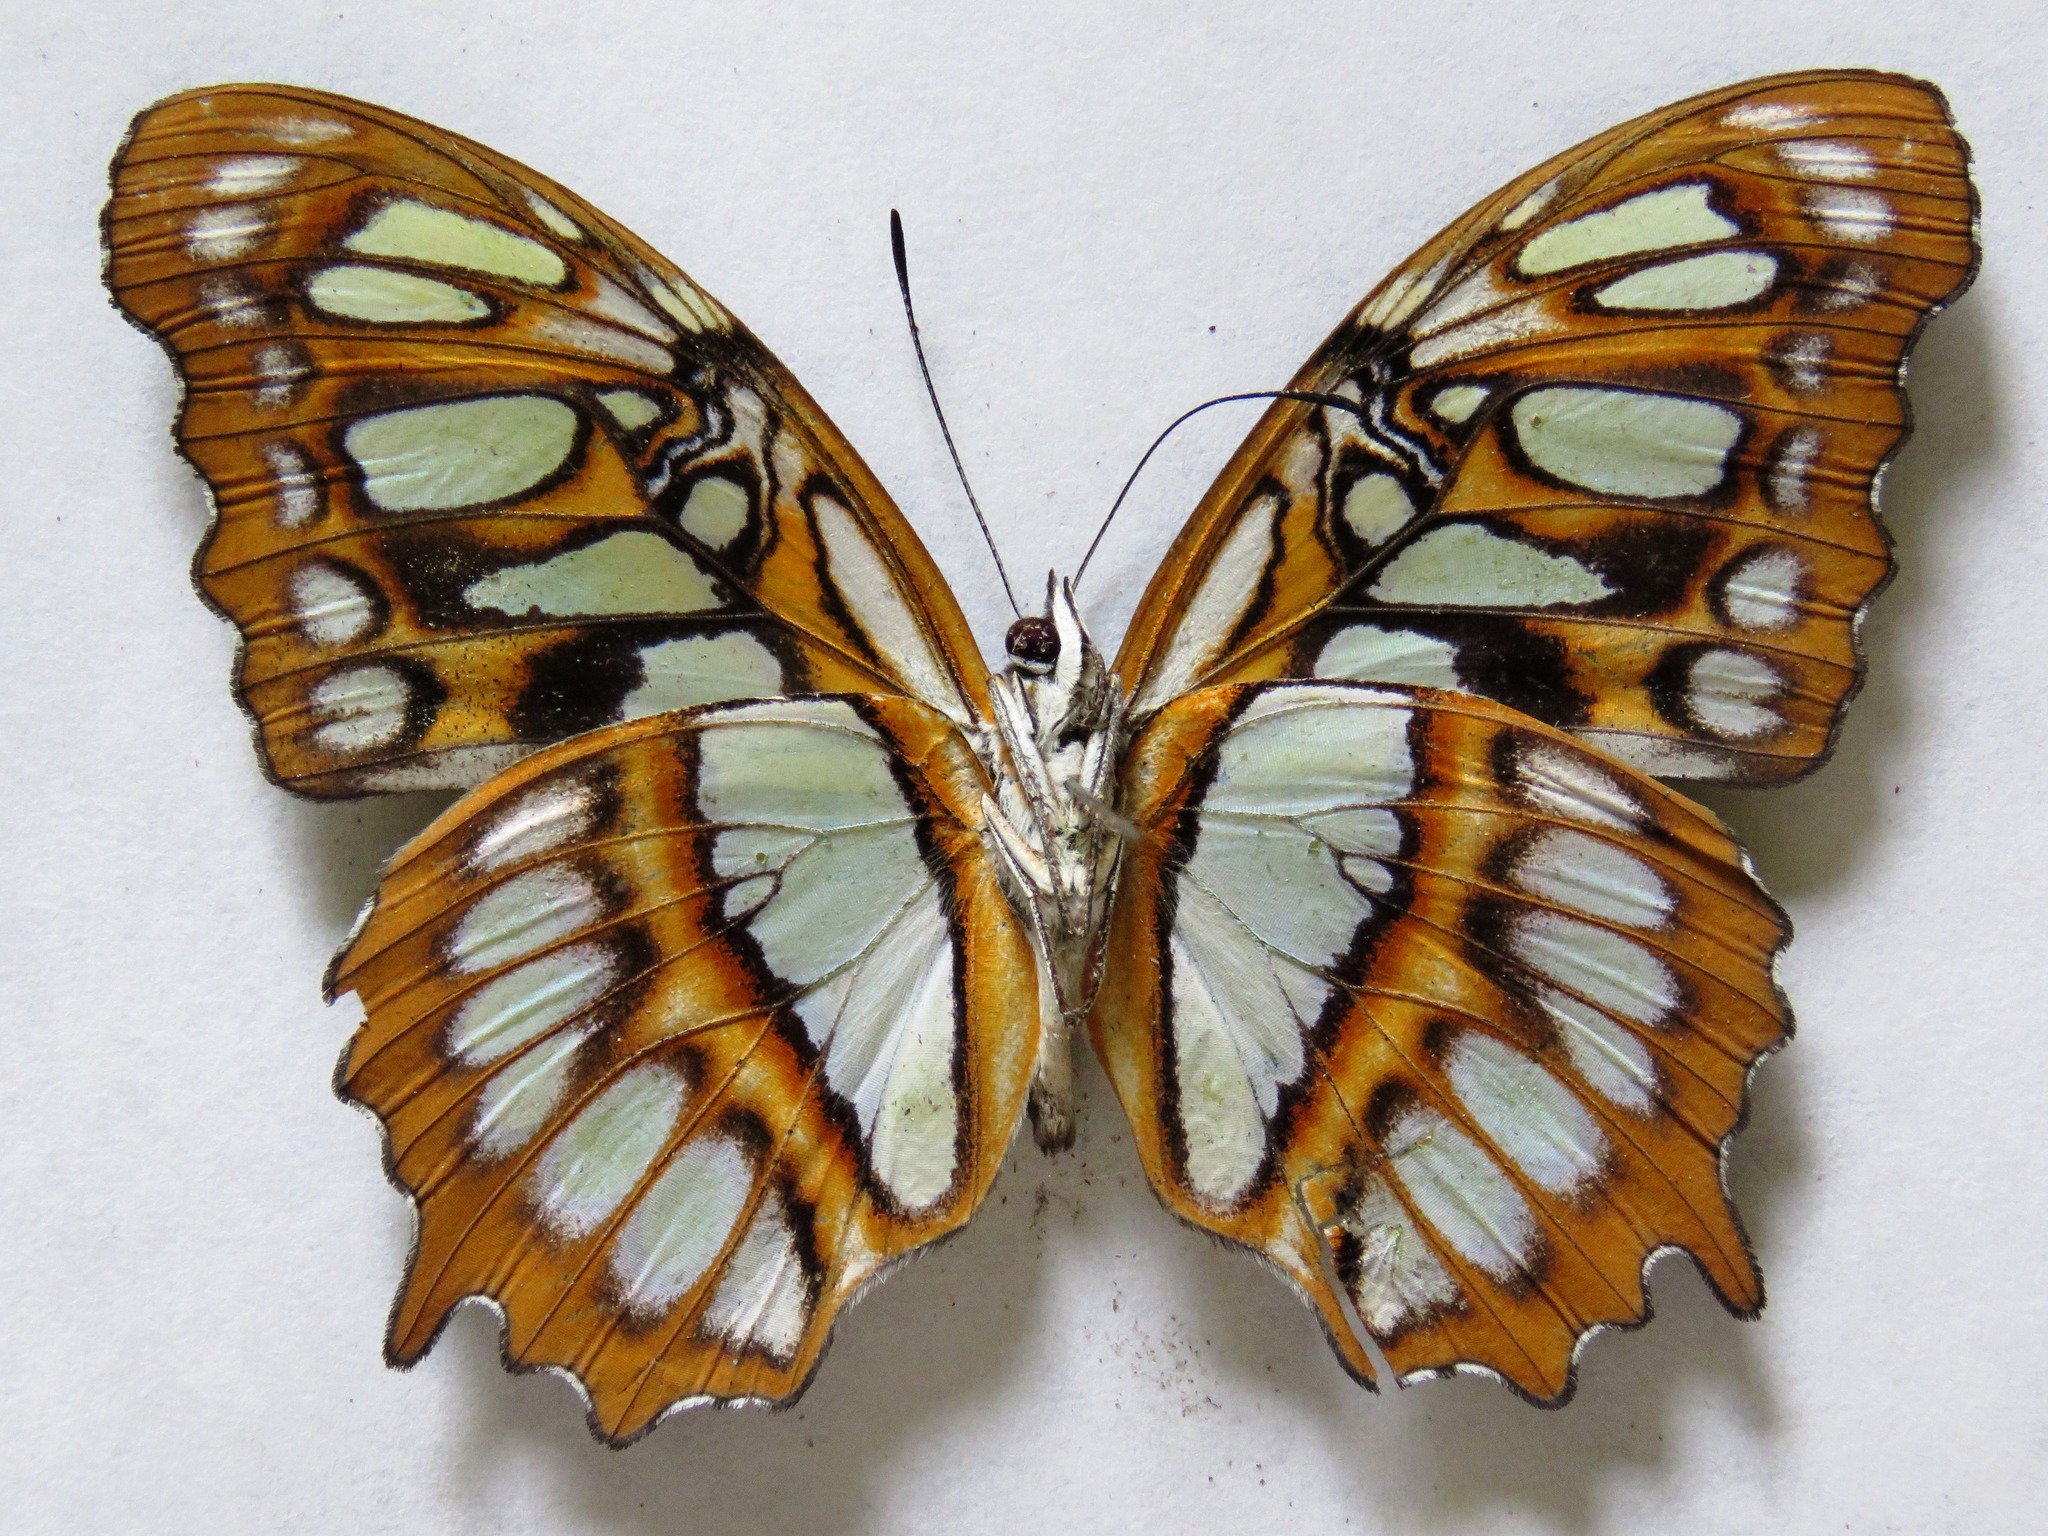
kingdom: Animalia
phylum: Arthropoda
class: Insecta
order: Lepidoptera
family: Nymphalidae
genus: Siproeta
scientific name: Siproeta stelenes
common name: Malachite
